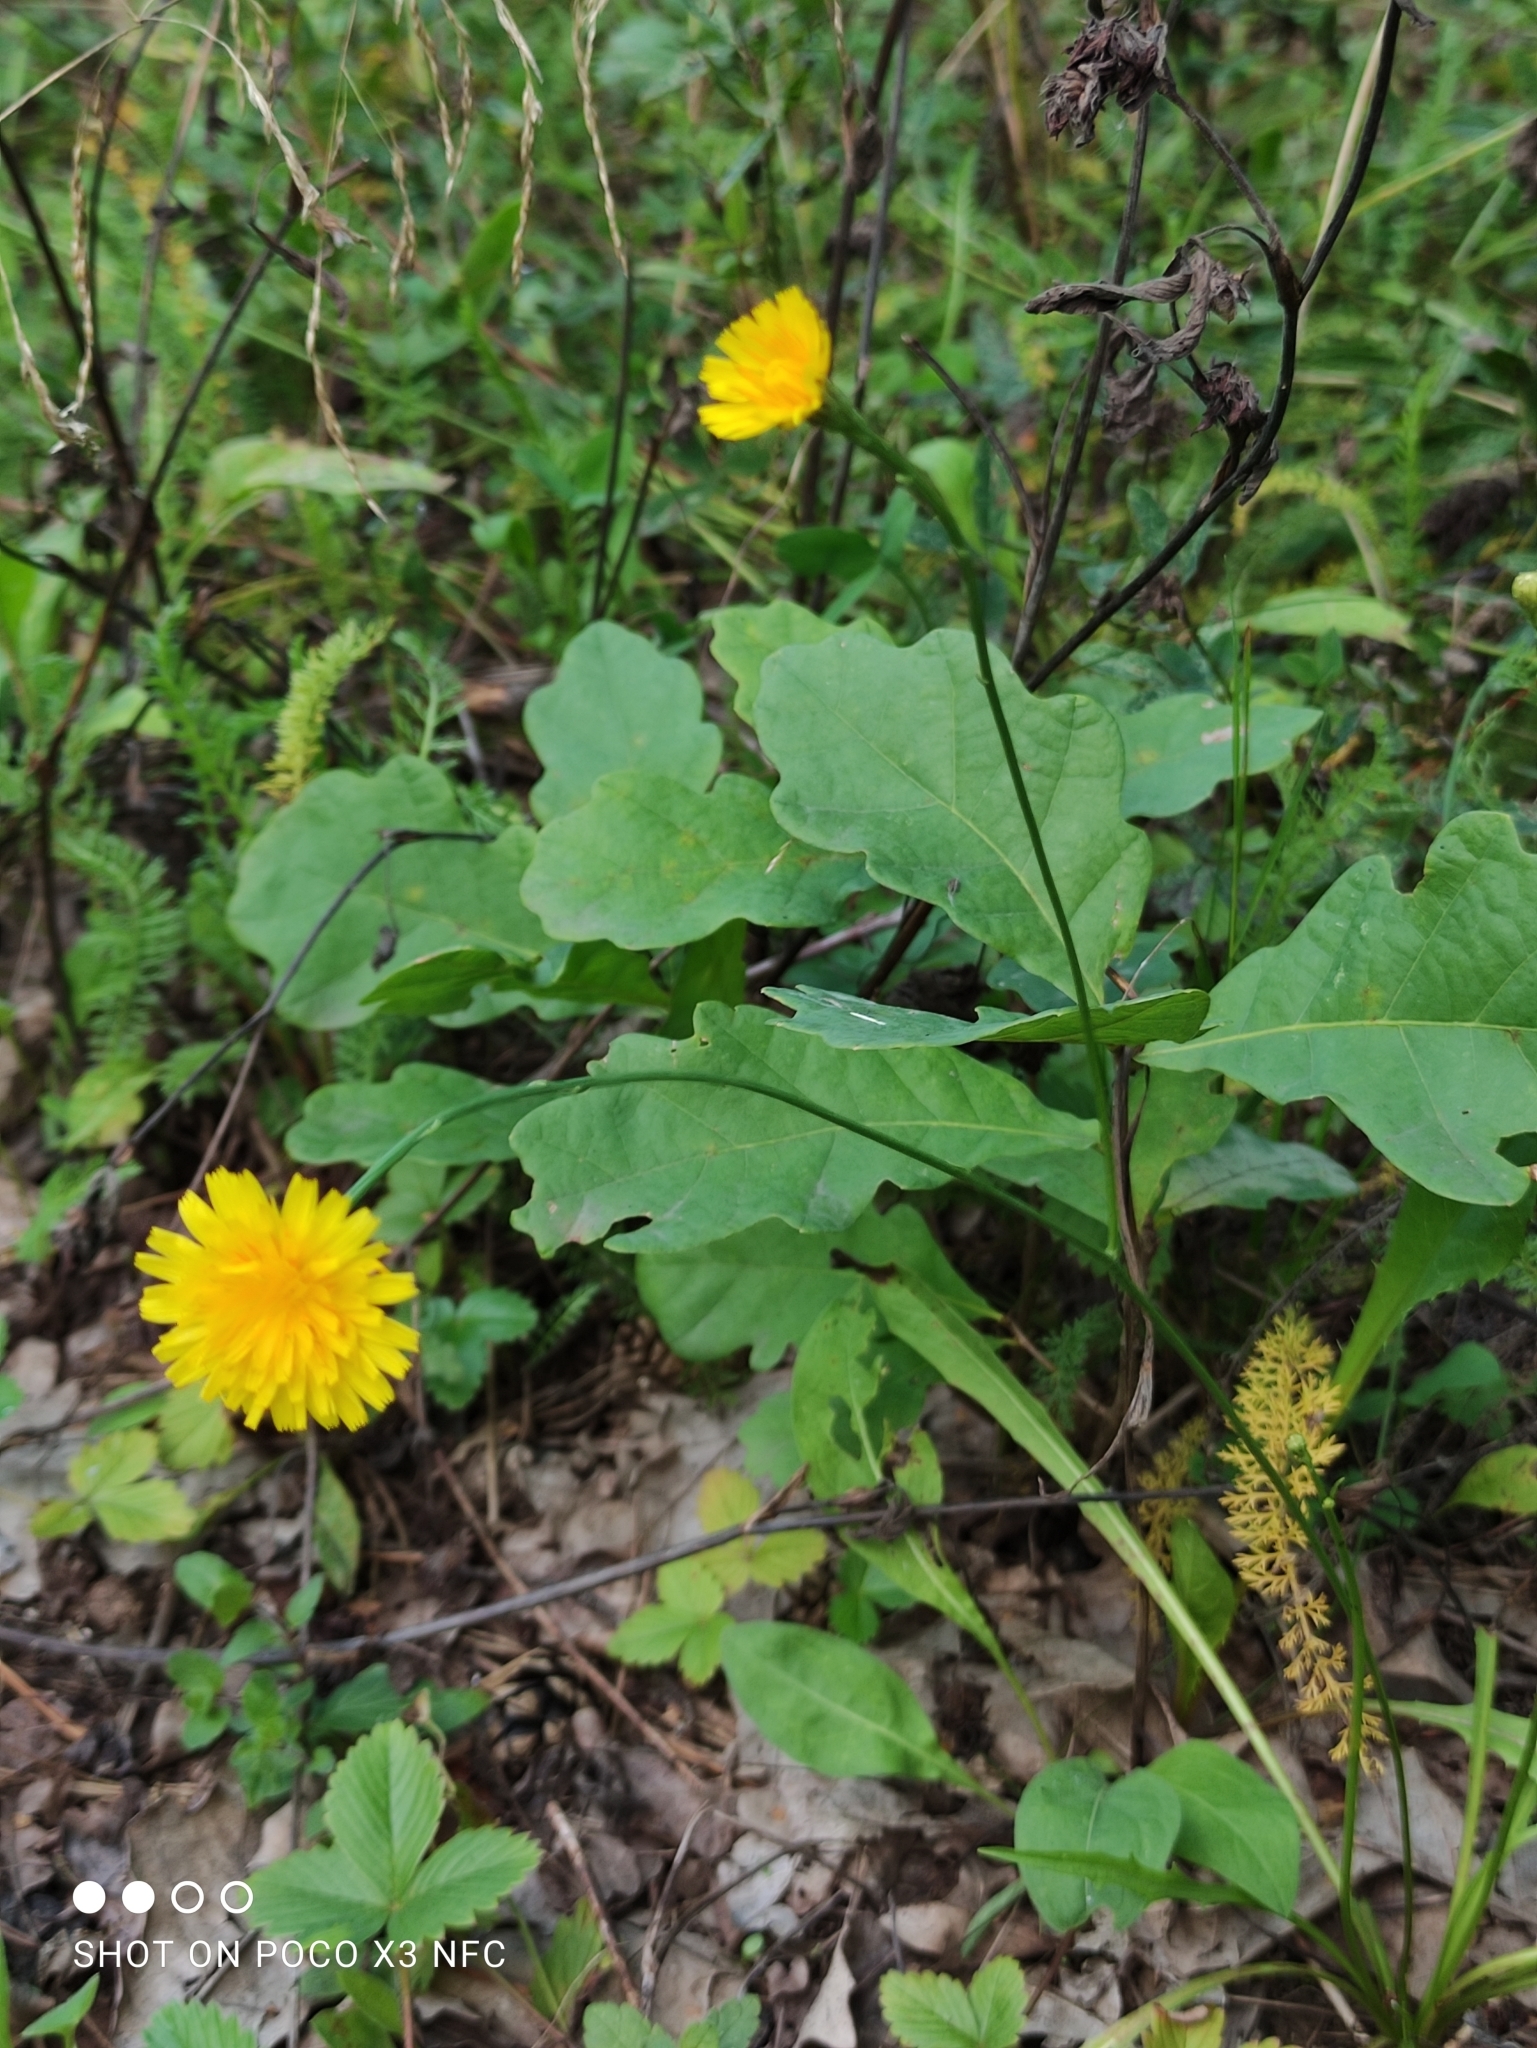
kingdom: Plantae
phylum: Tracheophyta
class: Magnoliopsida
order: Asterales
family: Asteraceae
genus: Scorzoneroides
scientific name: Scorzoneroides autumnalis
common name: Autumn hawkbit
